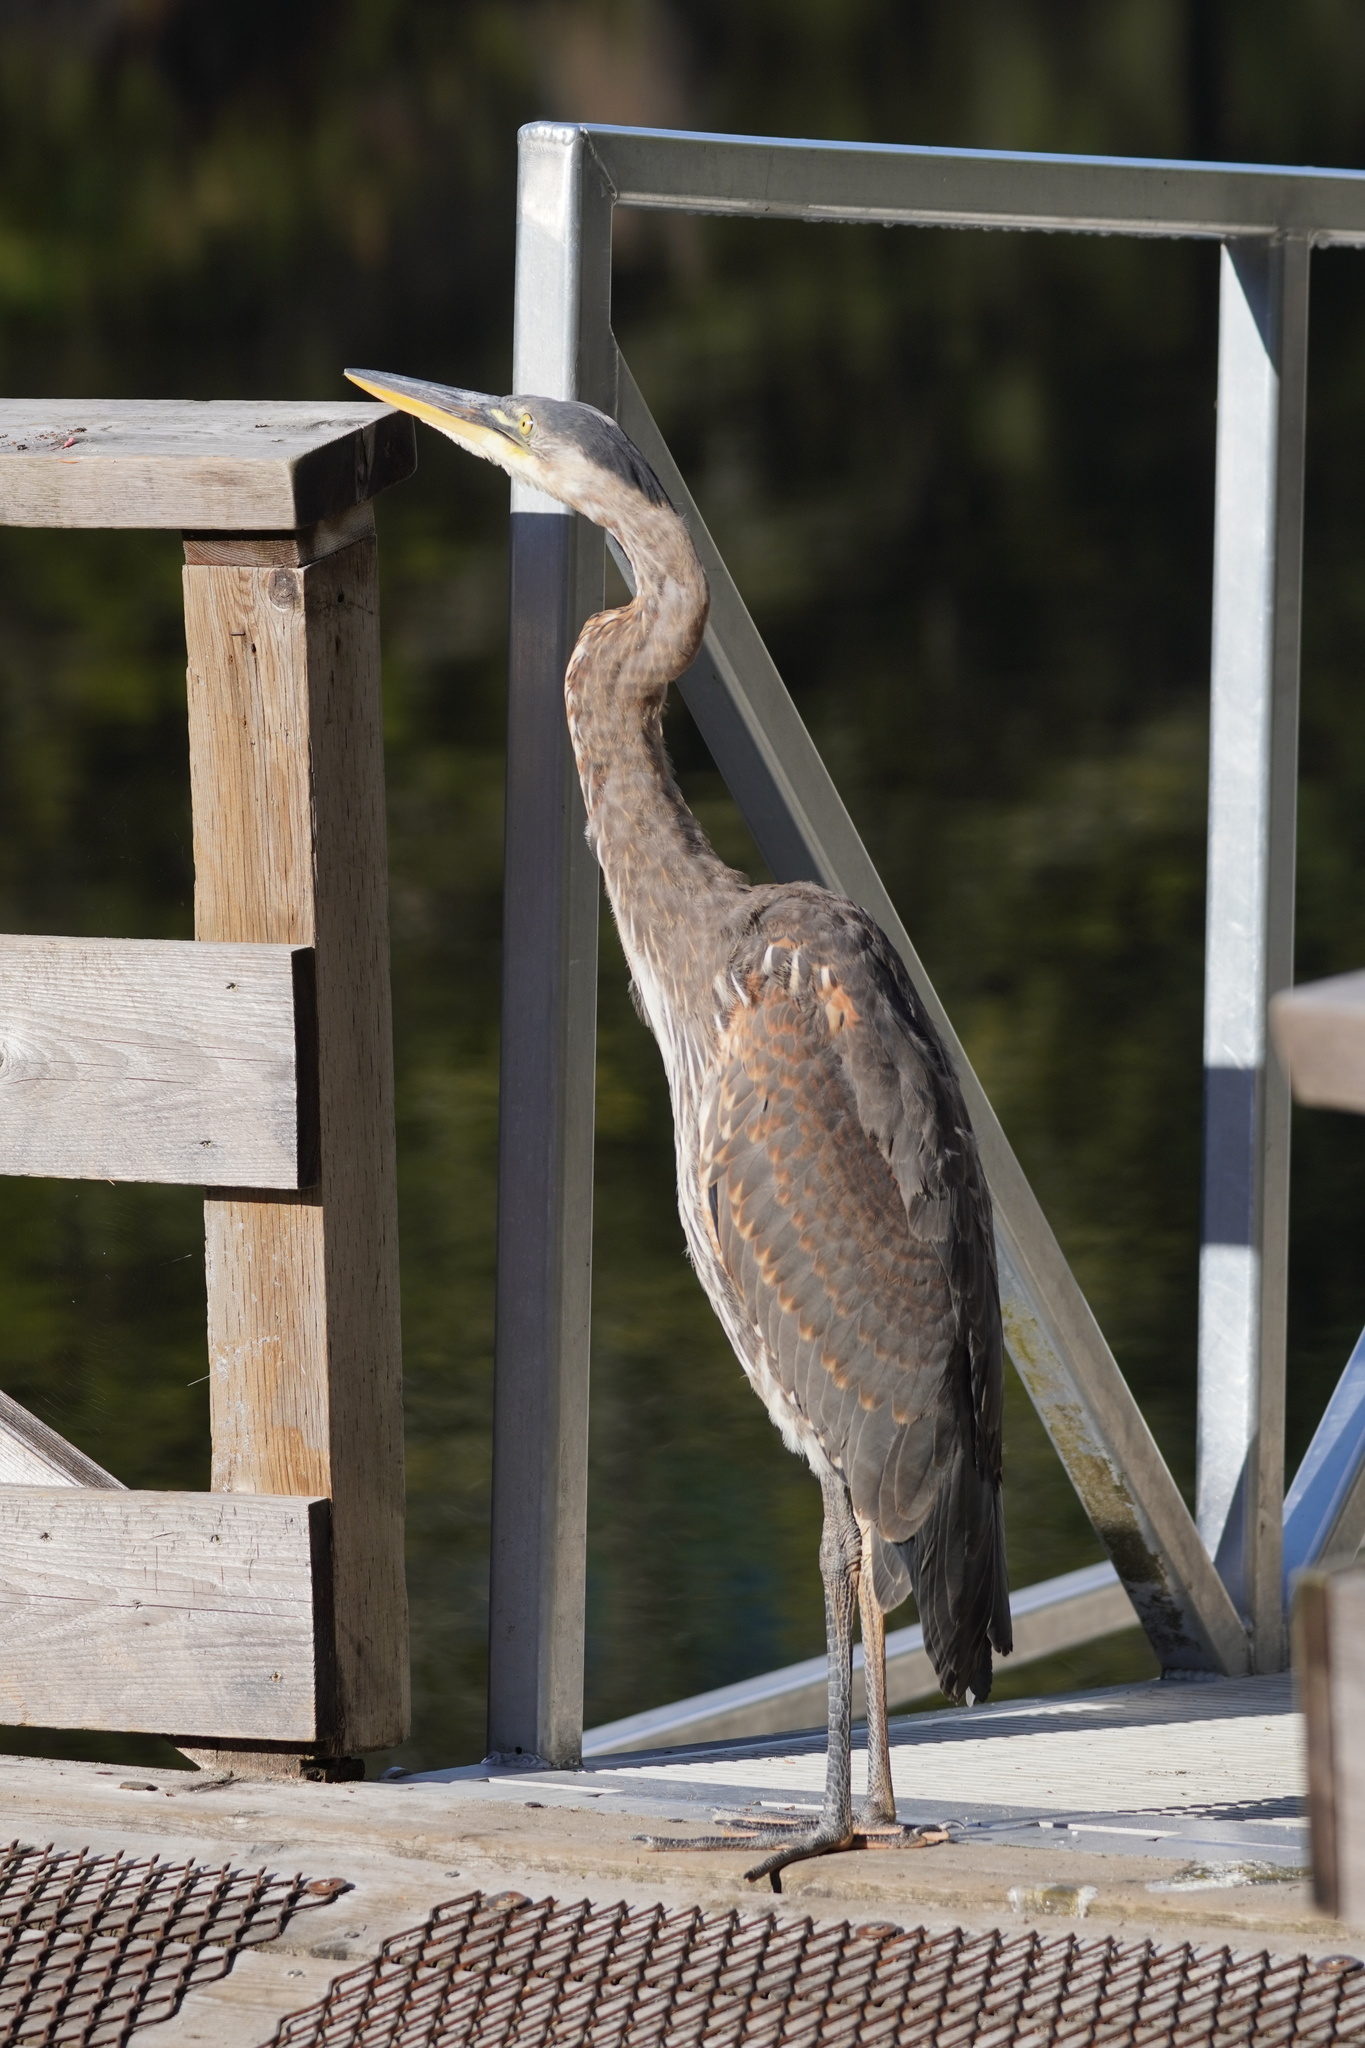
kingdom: Animalia
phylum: Chordata
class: Aves
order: Pelecaniformes
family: Ardeidae
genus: Ardea
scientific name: Ardea herodias
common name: Great blue heron
